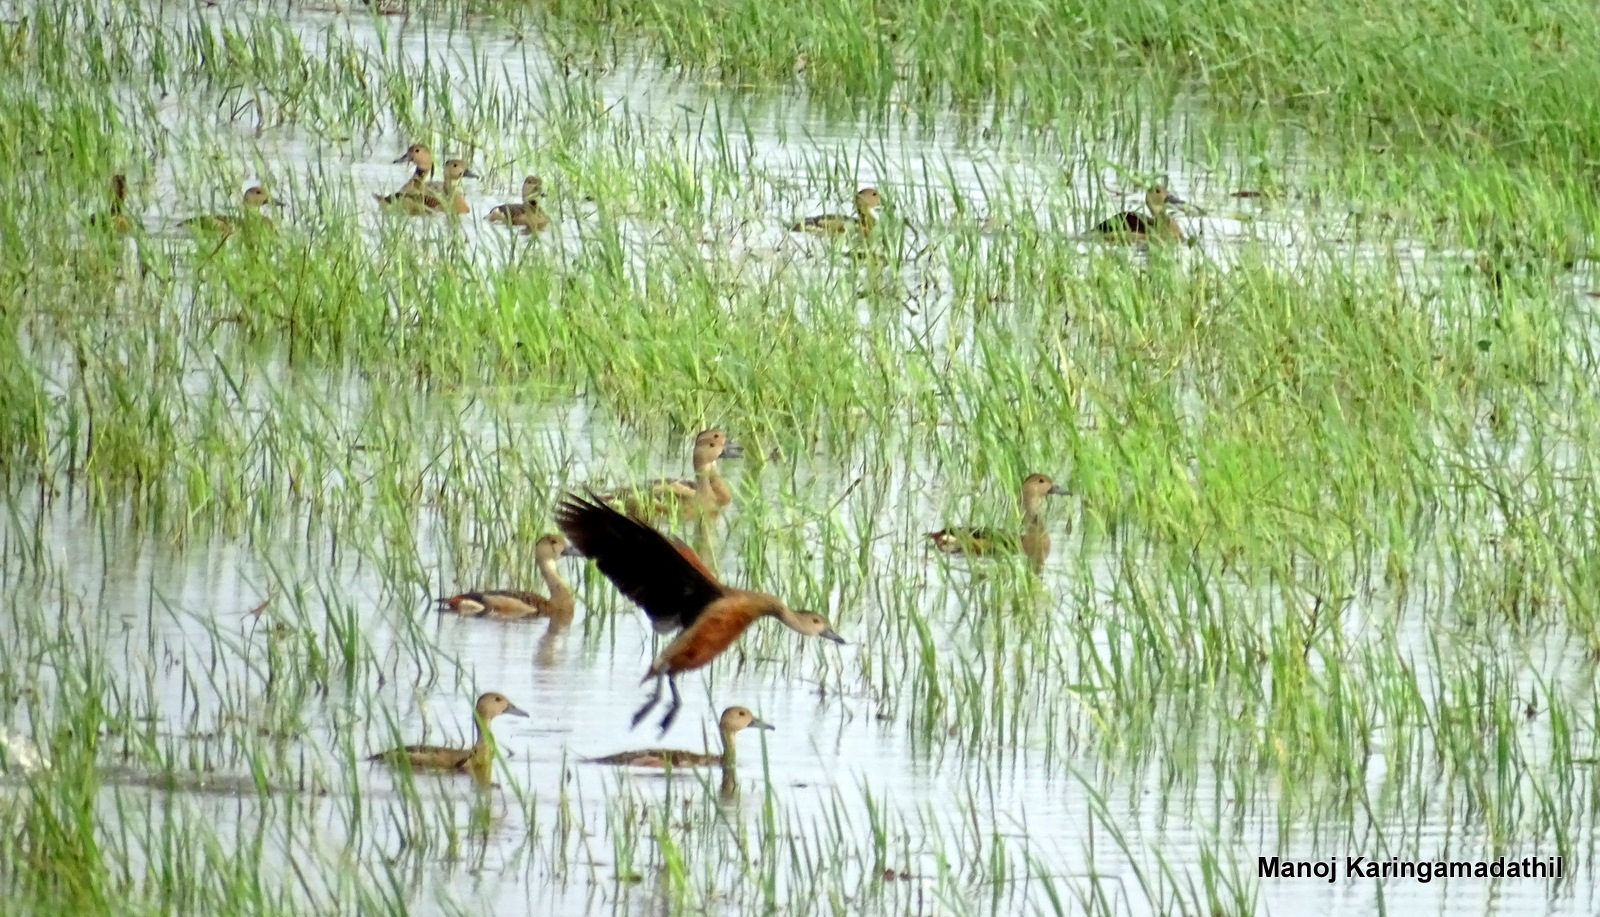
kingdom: Animalia
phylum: Chordata
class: Aves
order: Anseriformes
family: Anatidae
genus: Dendrocygna
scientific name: Dendrocygna javanica
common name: Lesser whistling-duck
